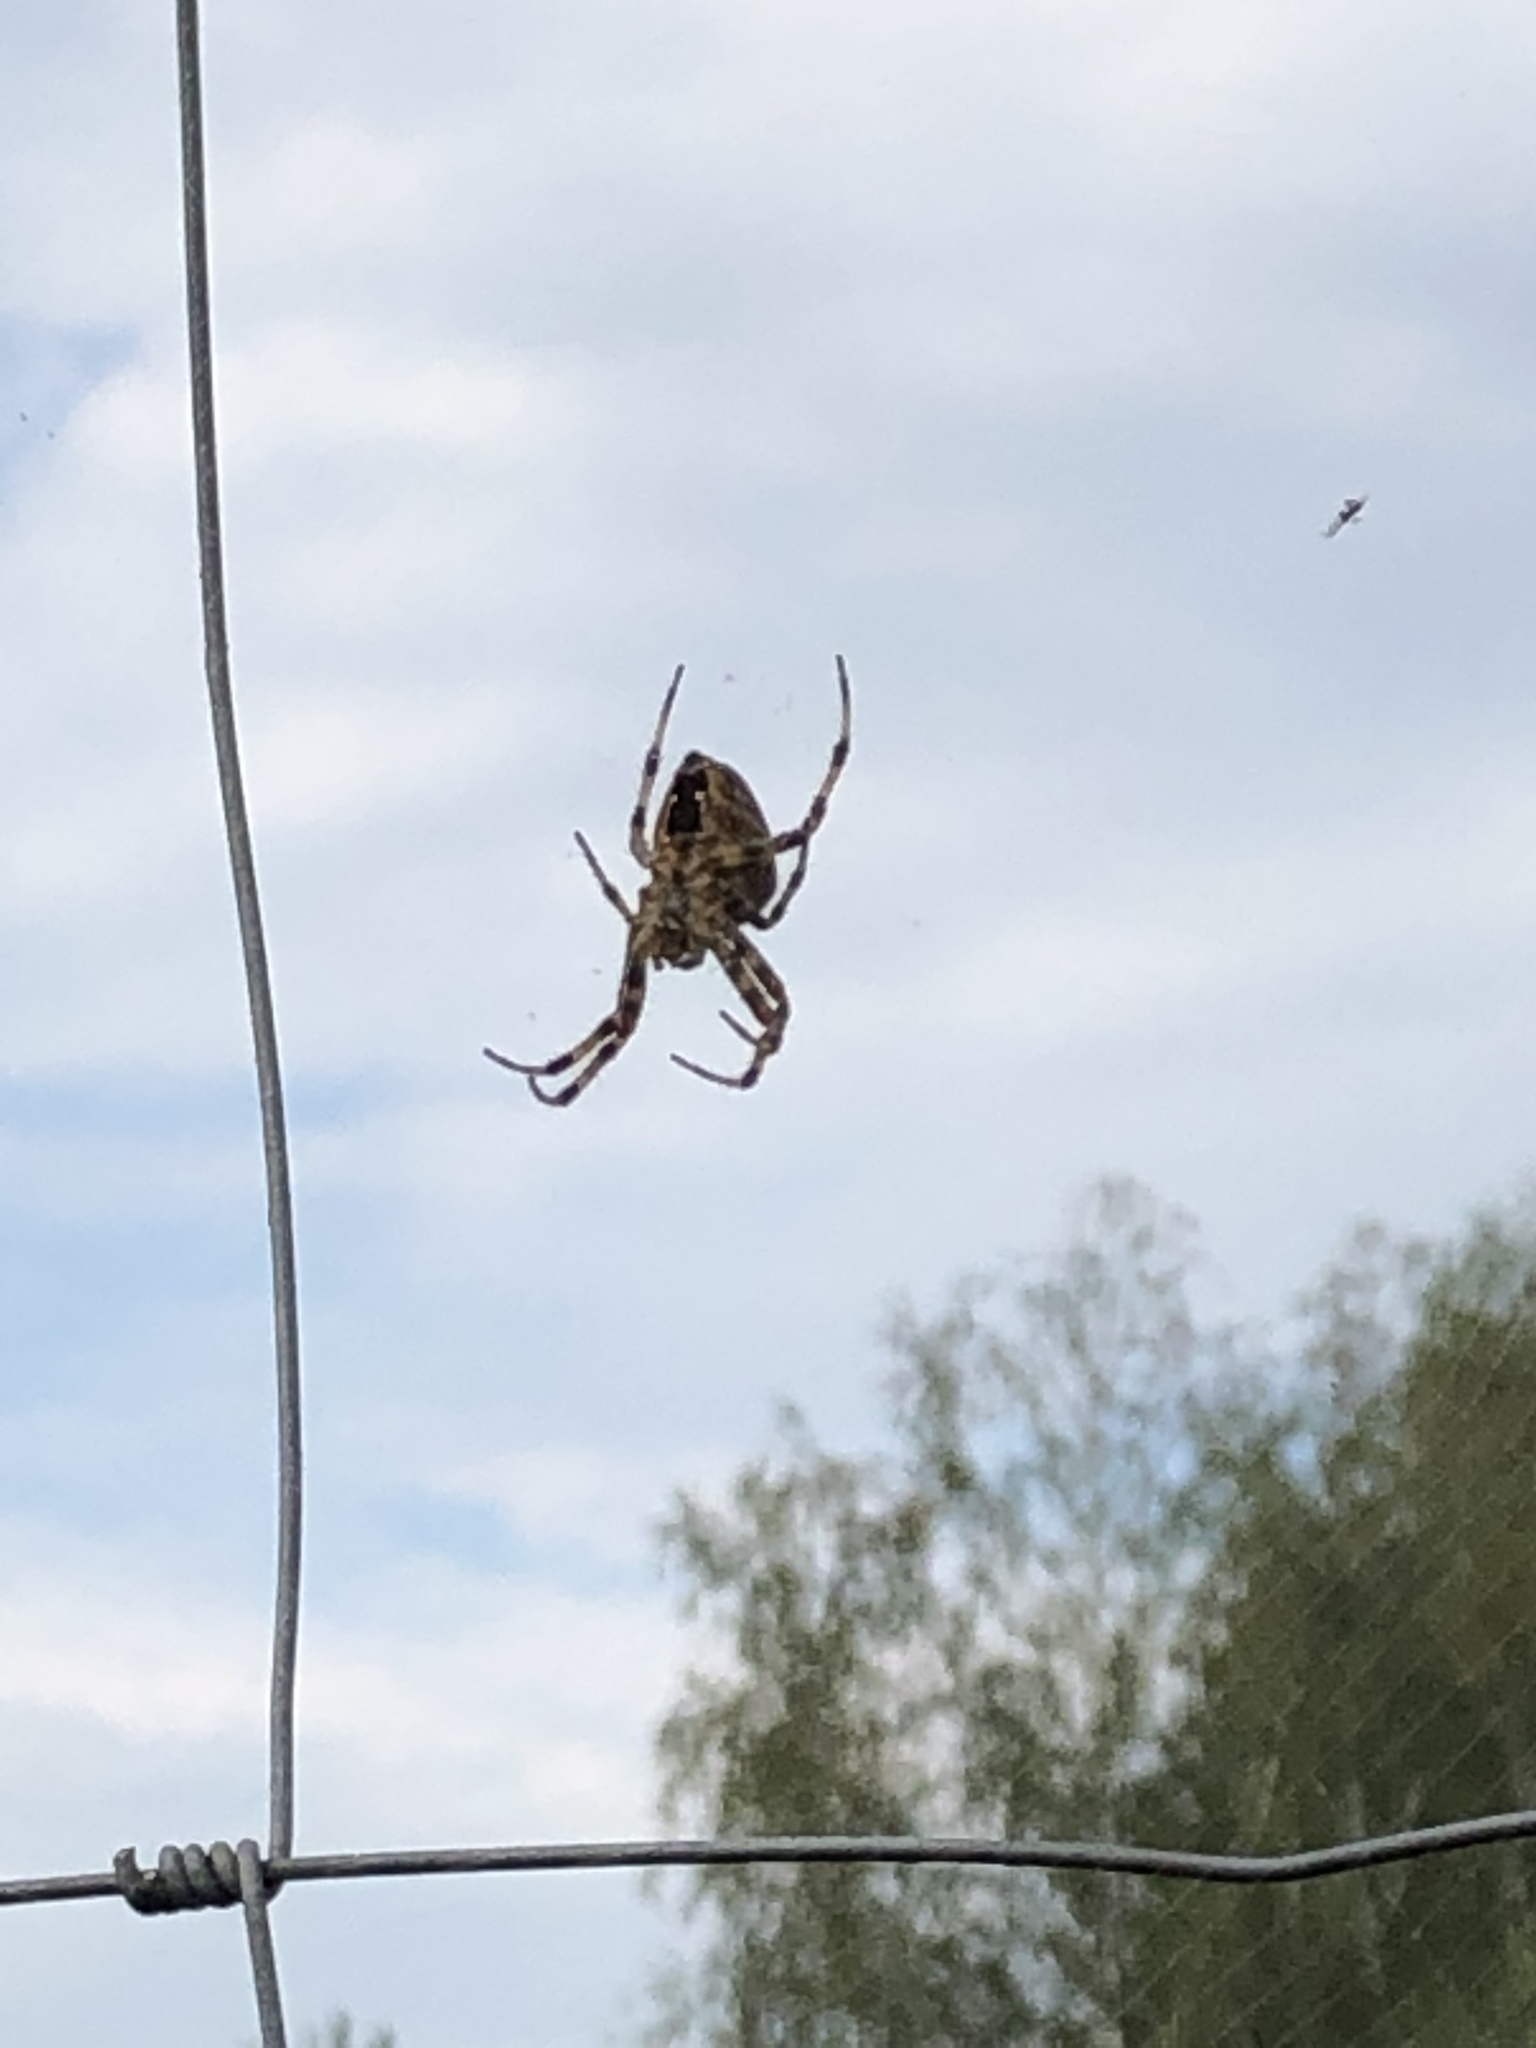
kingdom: Animalia
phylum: Arthropoda
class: Arachnida
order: Araneae
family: Araneidae
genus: Araneus
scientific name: Araneus diadematus
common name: Cross orbweaver
